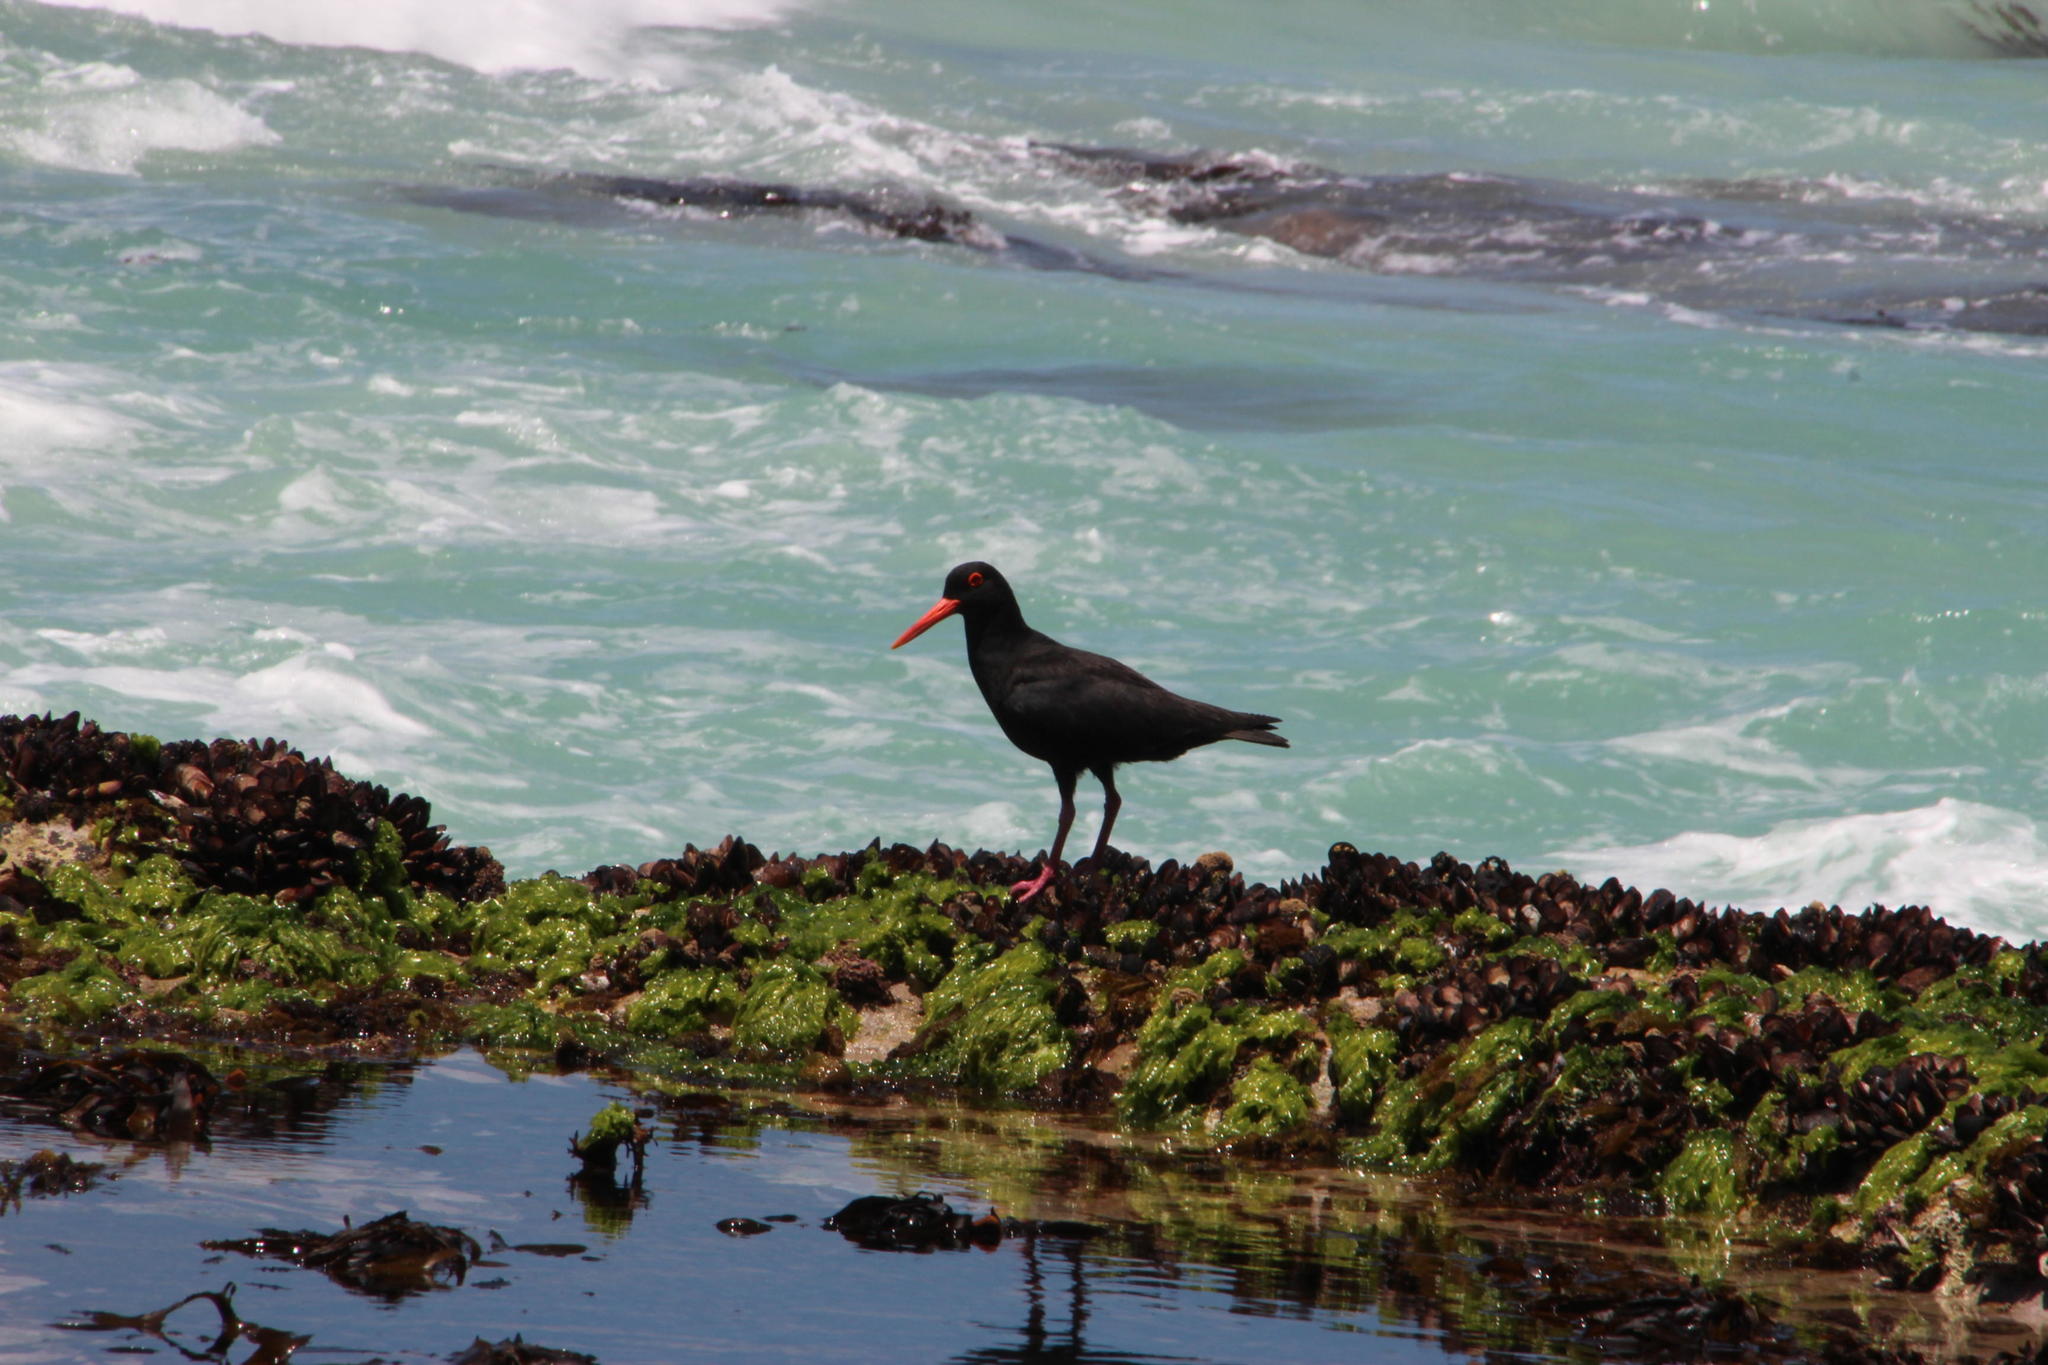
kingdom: Animalia
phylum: Chordata
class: Aves
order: Charadriiformes
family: Haematopodidae
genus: Haematopus
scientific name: Haematopus moquini
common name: African oystercatcher
